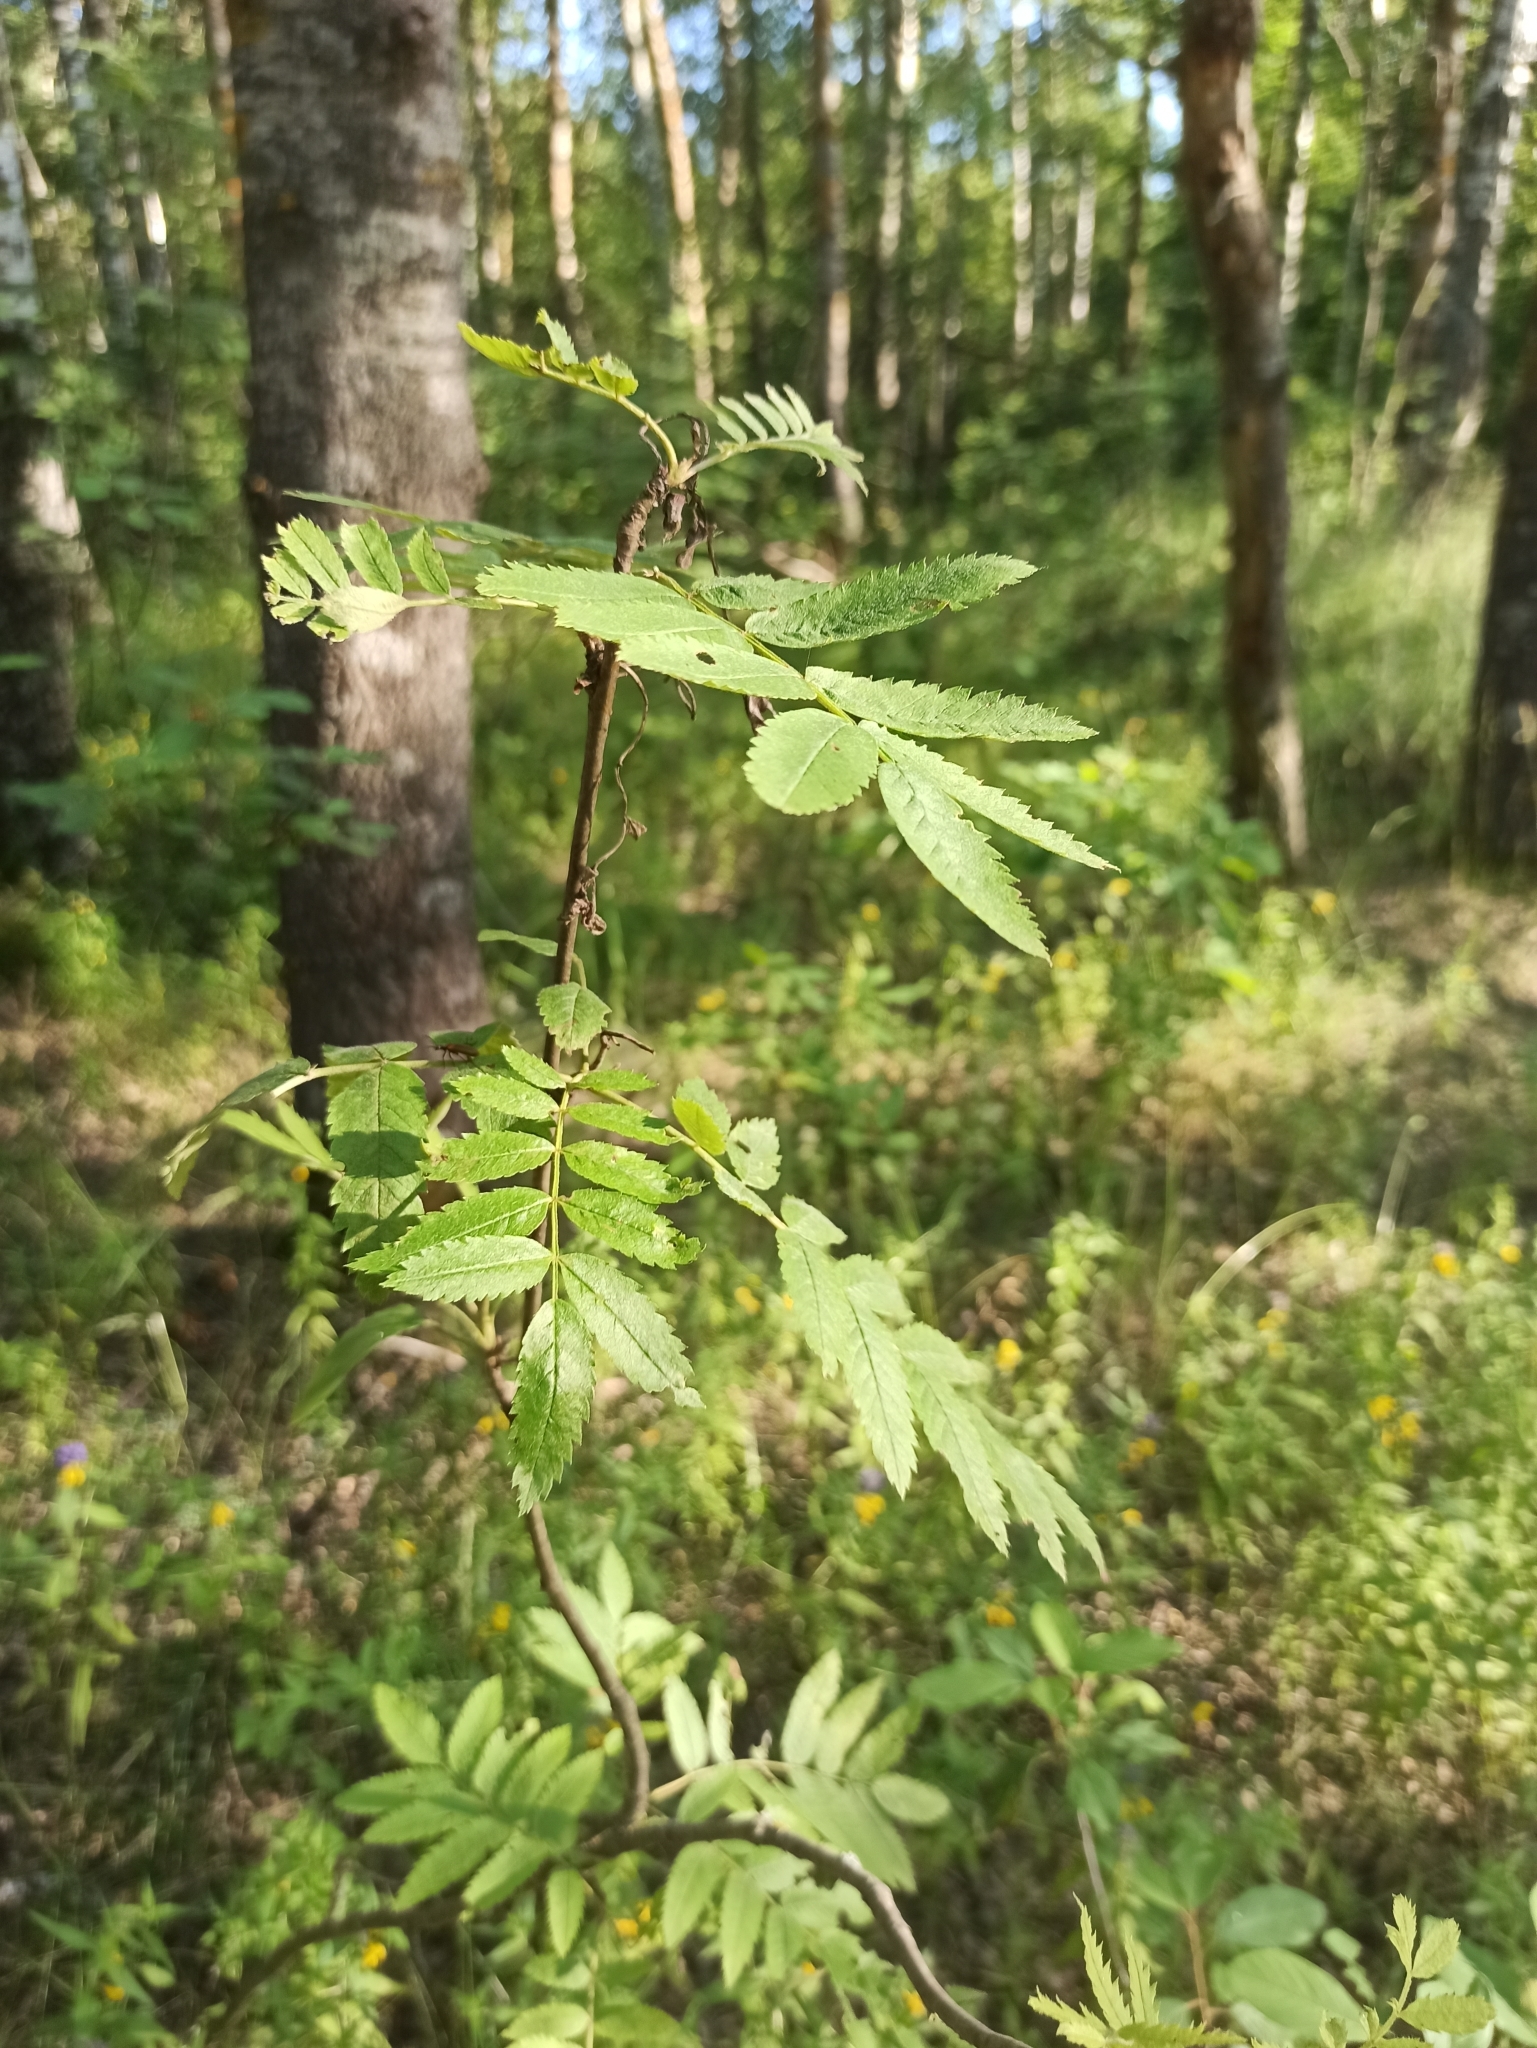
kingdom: Plantae
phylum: Tracheophyta
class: Magnoliopsida
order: Rosales
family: Rosaceae
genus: Sorbus
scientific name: Sorbus aucuparia
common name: Rowan
